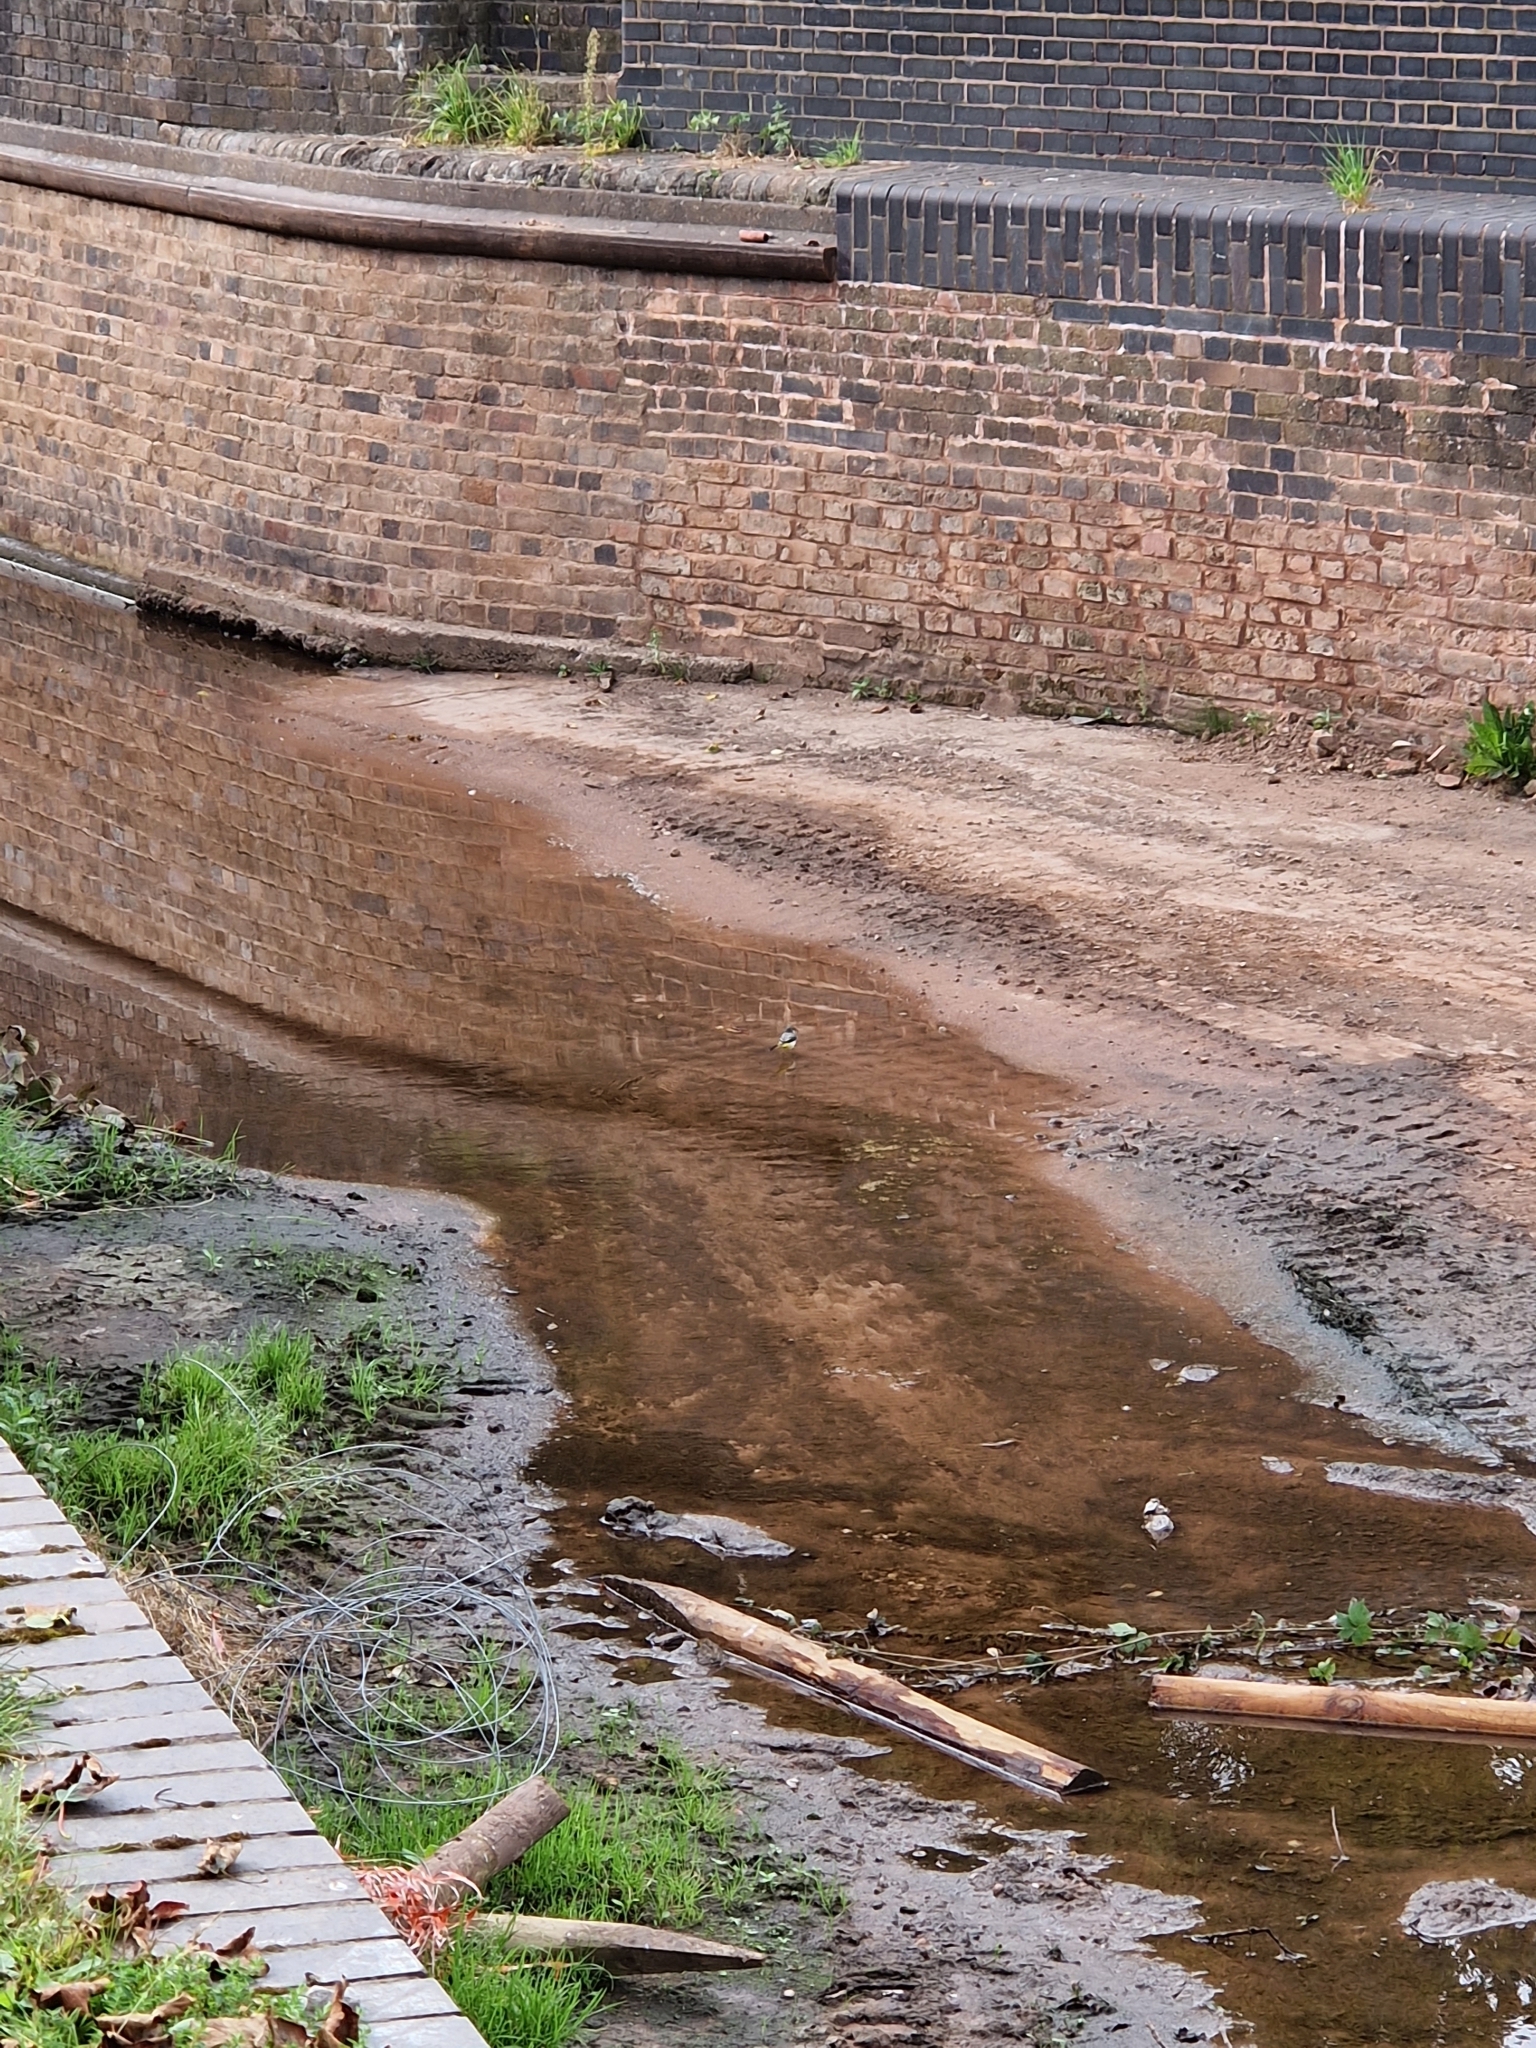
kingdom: Animalia
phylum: Chordata
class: Aves
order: Passeriformes
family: Motacillidae
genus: Motacilla
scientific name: Motacilla cinerea
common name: Grey wagtail
